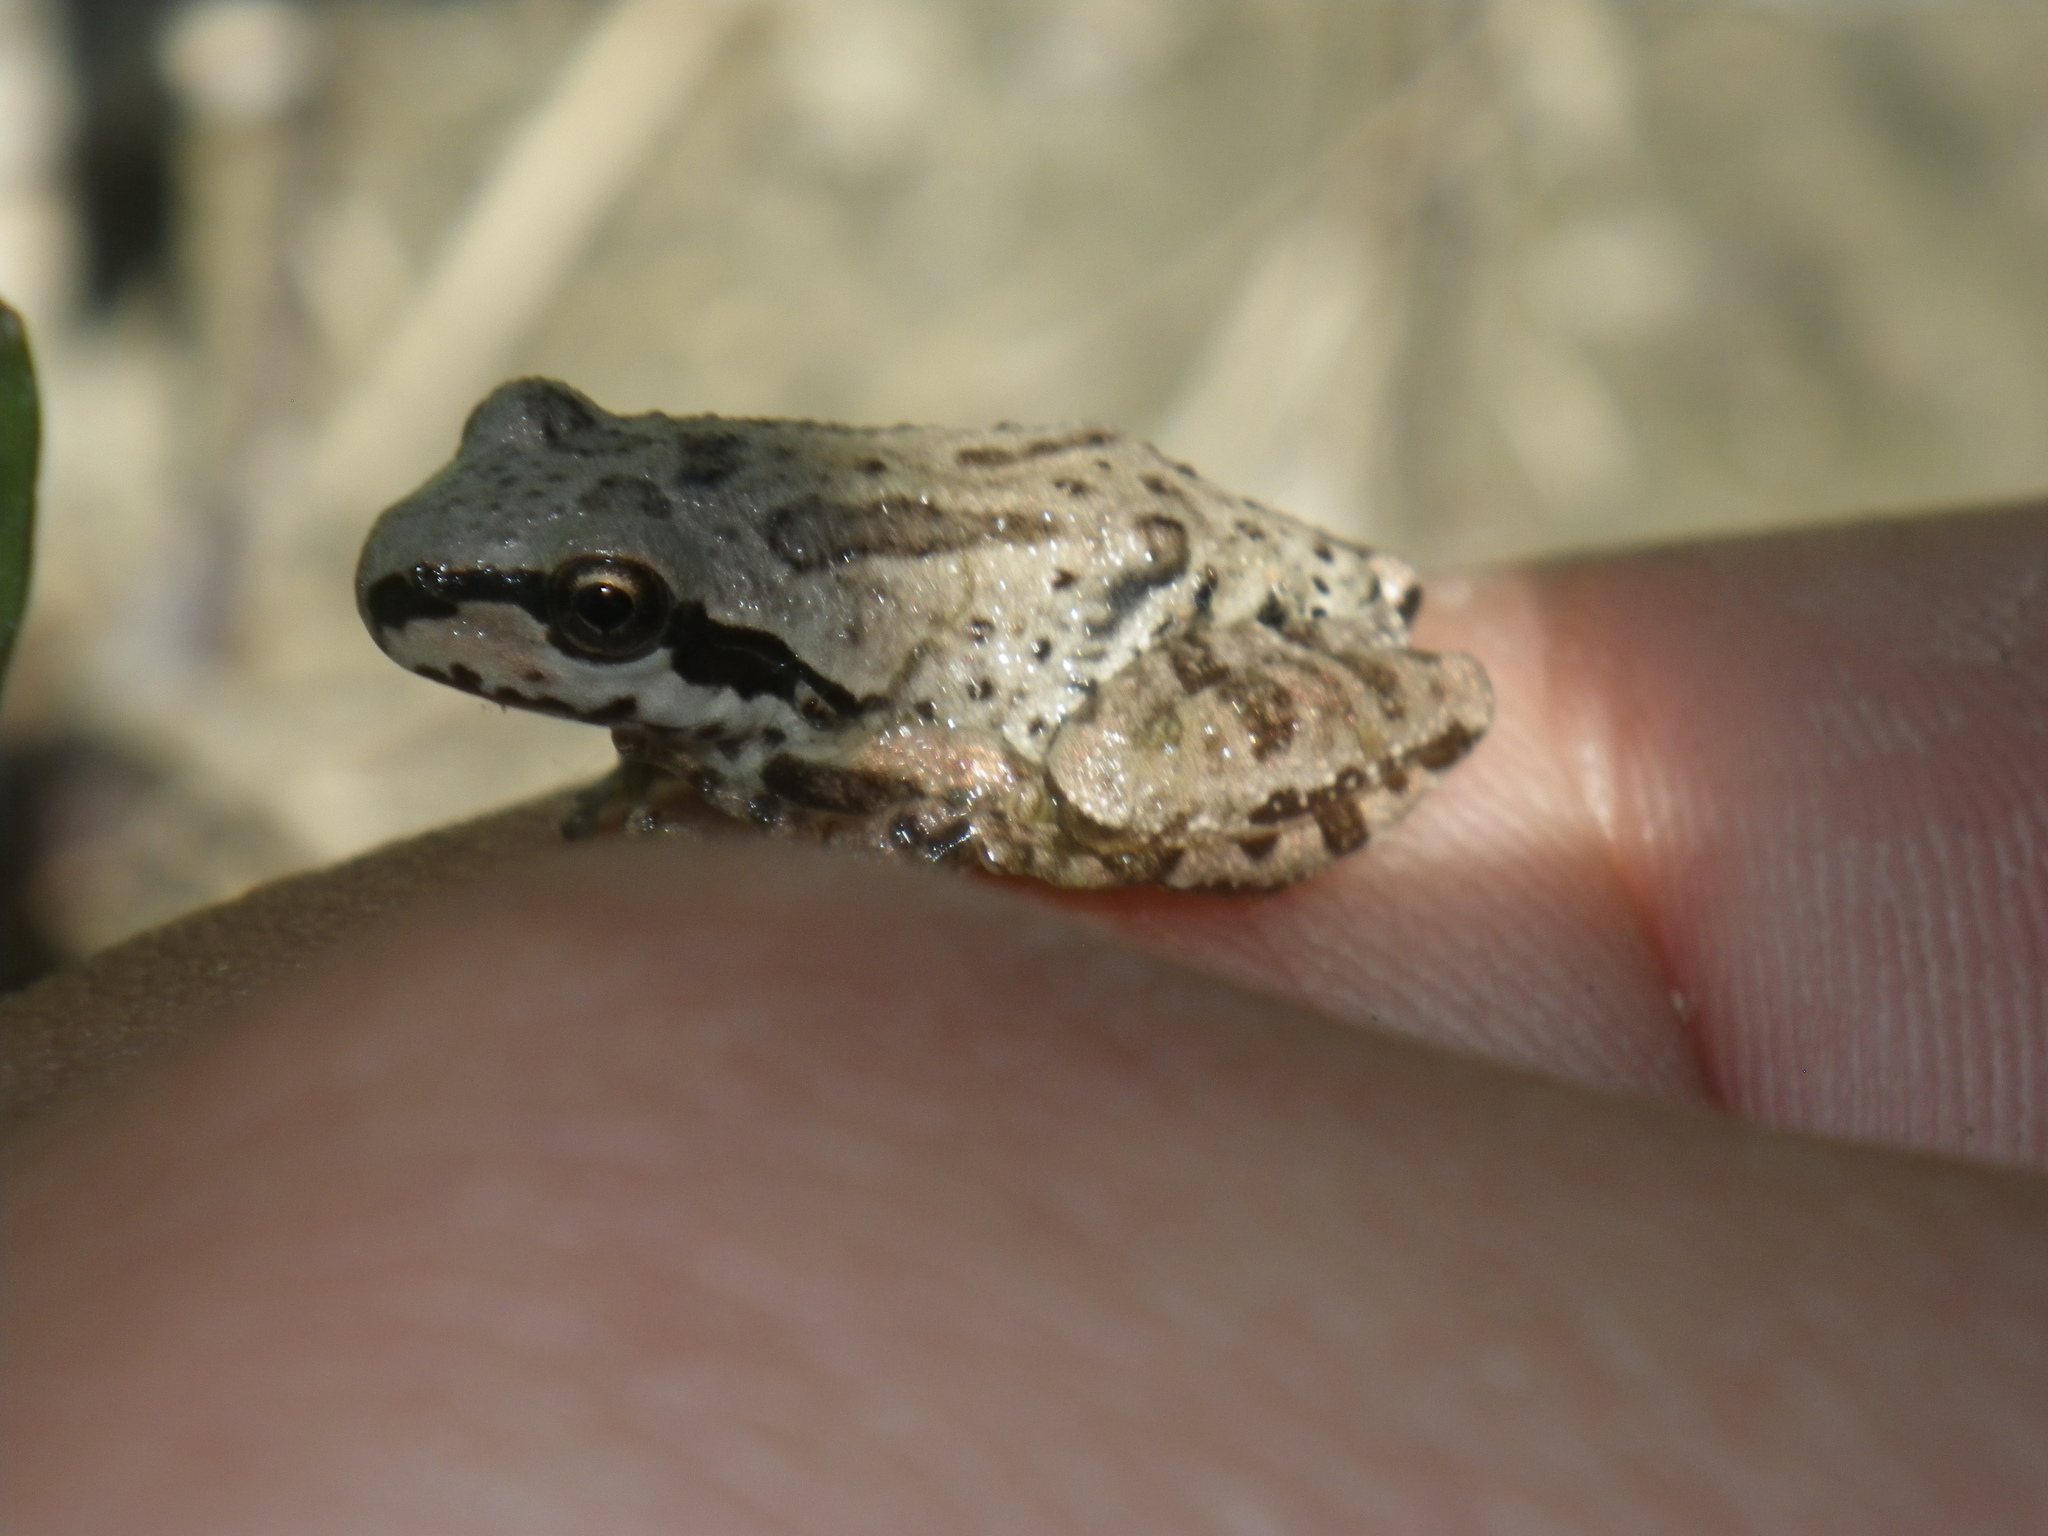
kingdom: Animalia
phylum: Chordata
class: Amphibia
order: Anura
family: Hylidae
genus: Pseudacris
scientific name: Pseudacris regilla
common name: Pacific chorus frog
